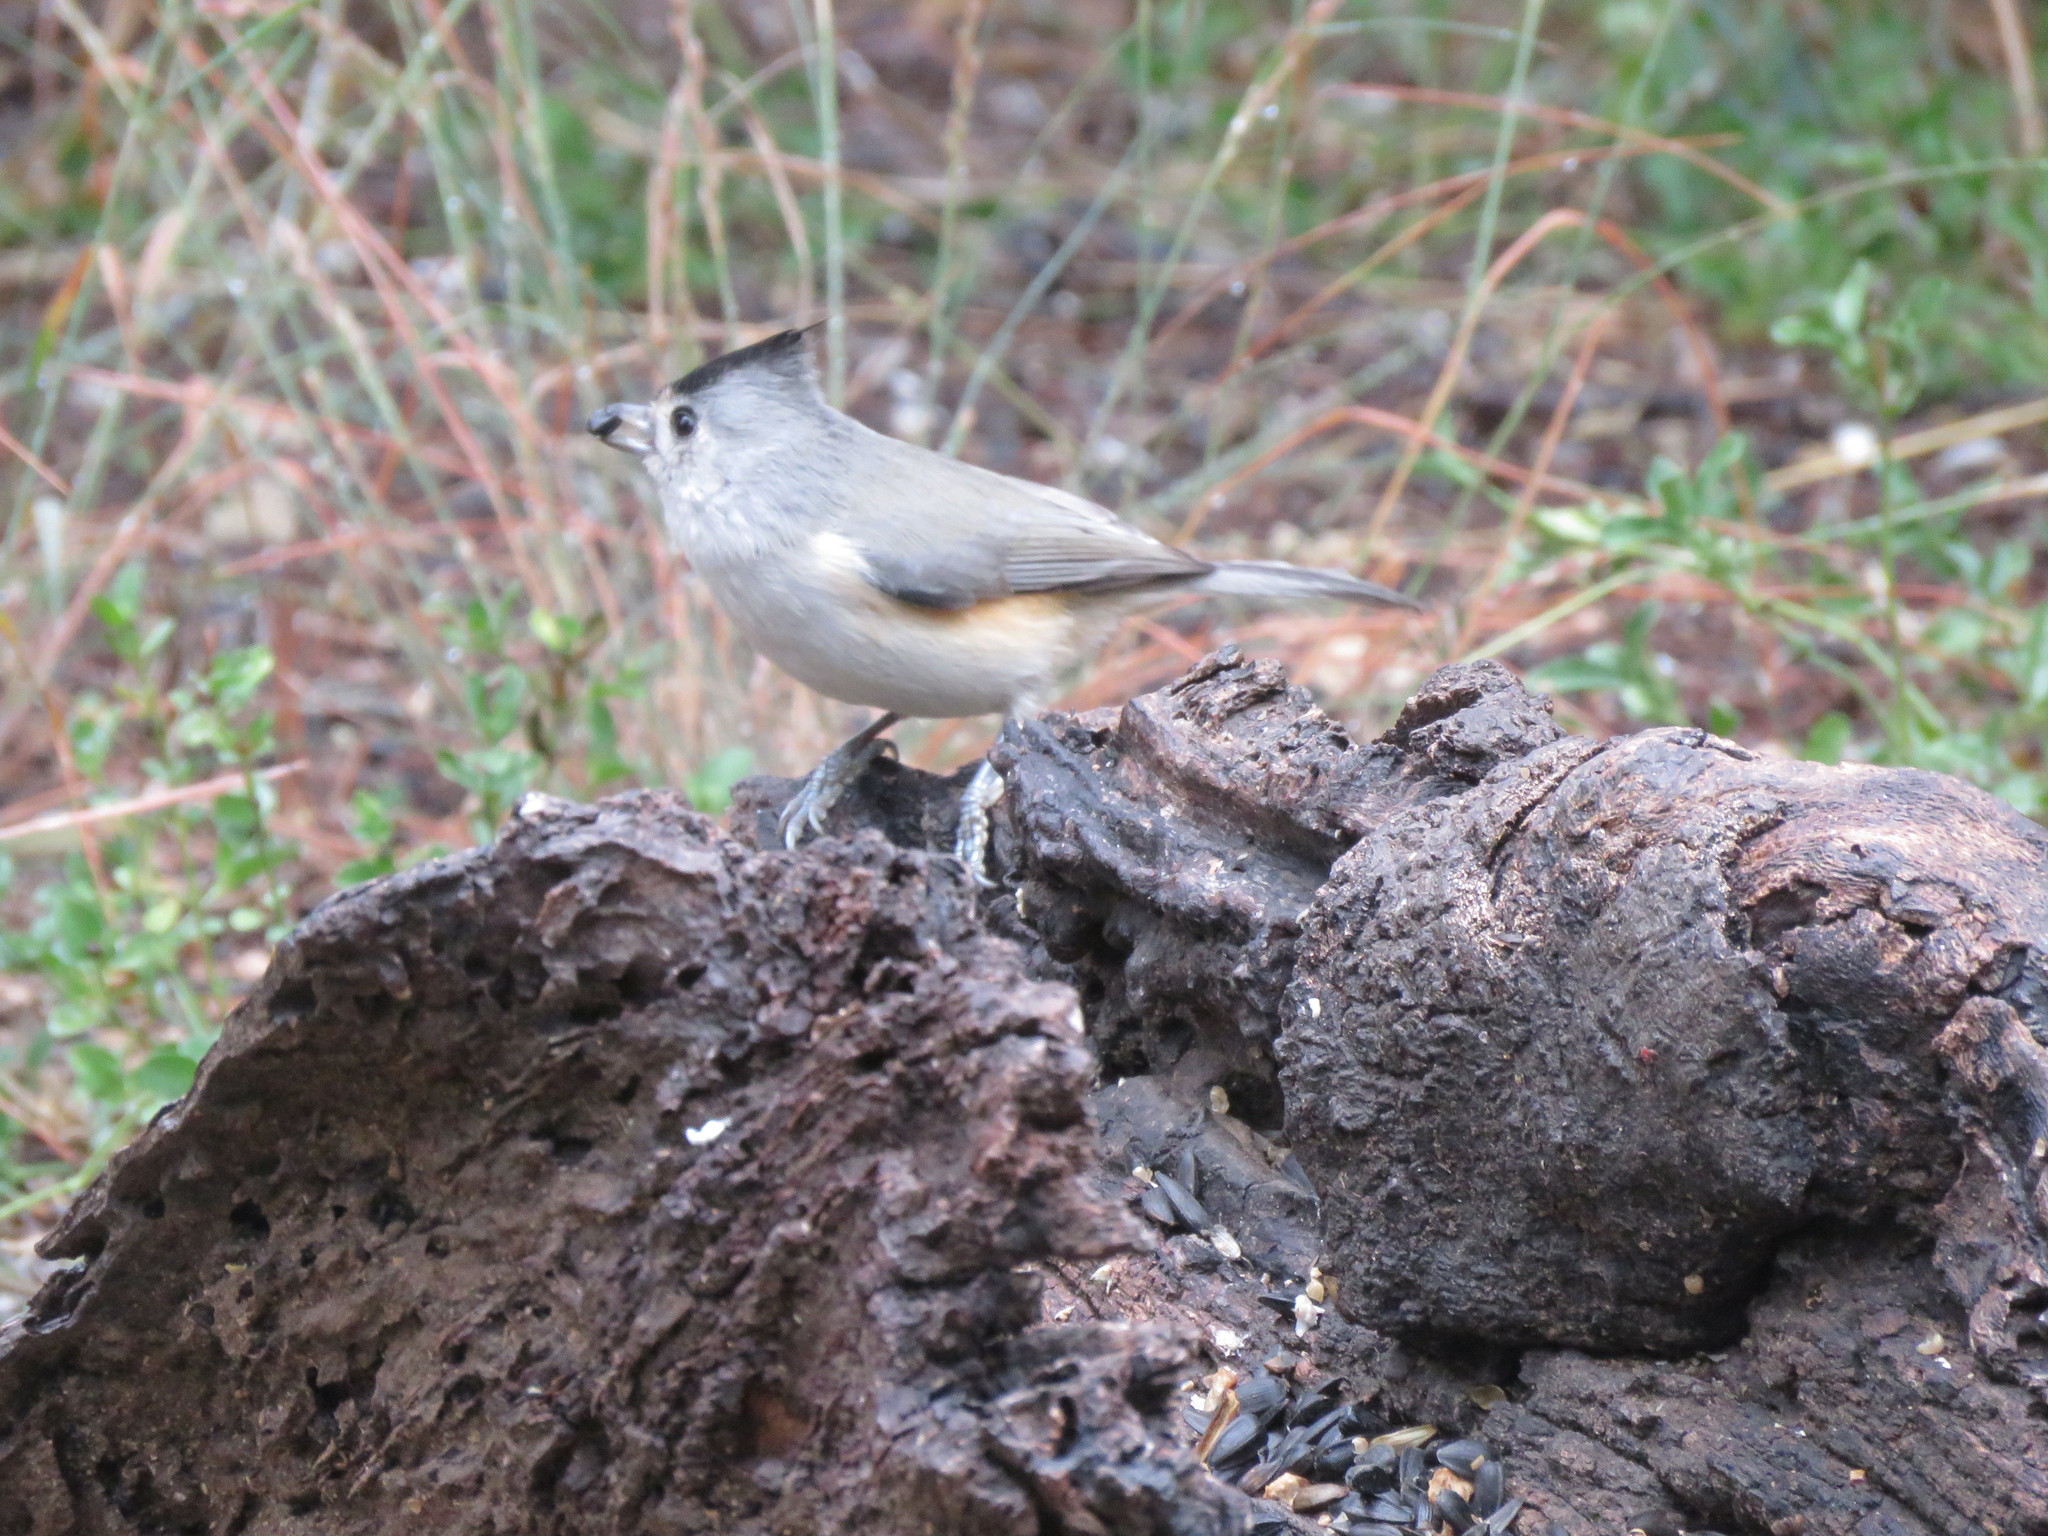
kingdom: Animalia
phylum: Chordata
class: Aves
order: Passeriformes
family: Paridae
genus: Baeolophus
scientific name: Baeolophus atricristatus
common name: Black-crested titmouse
